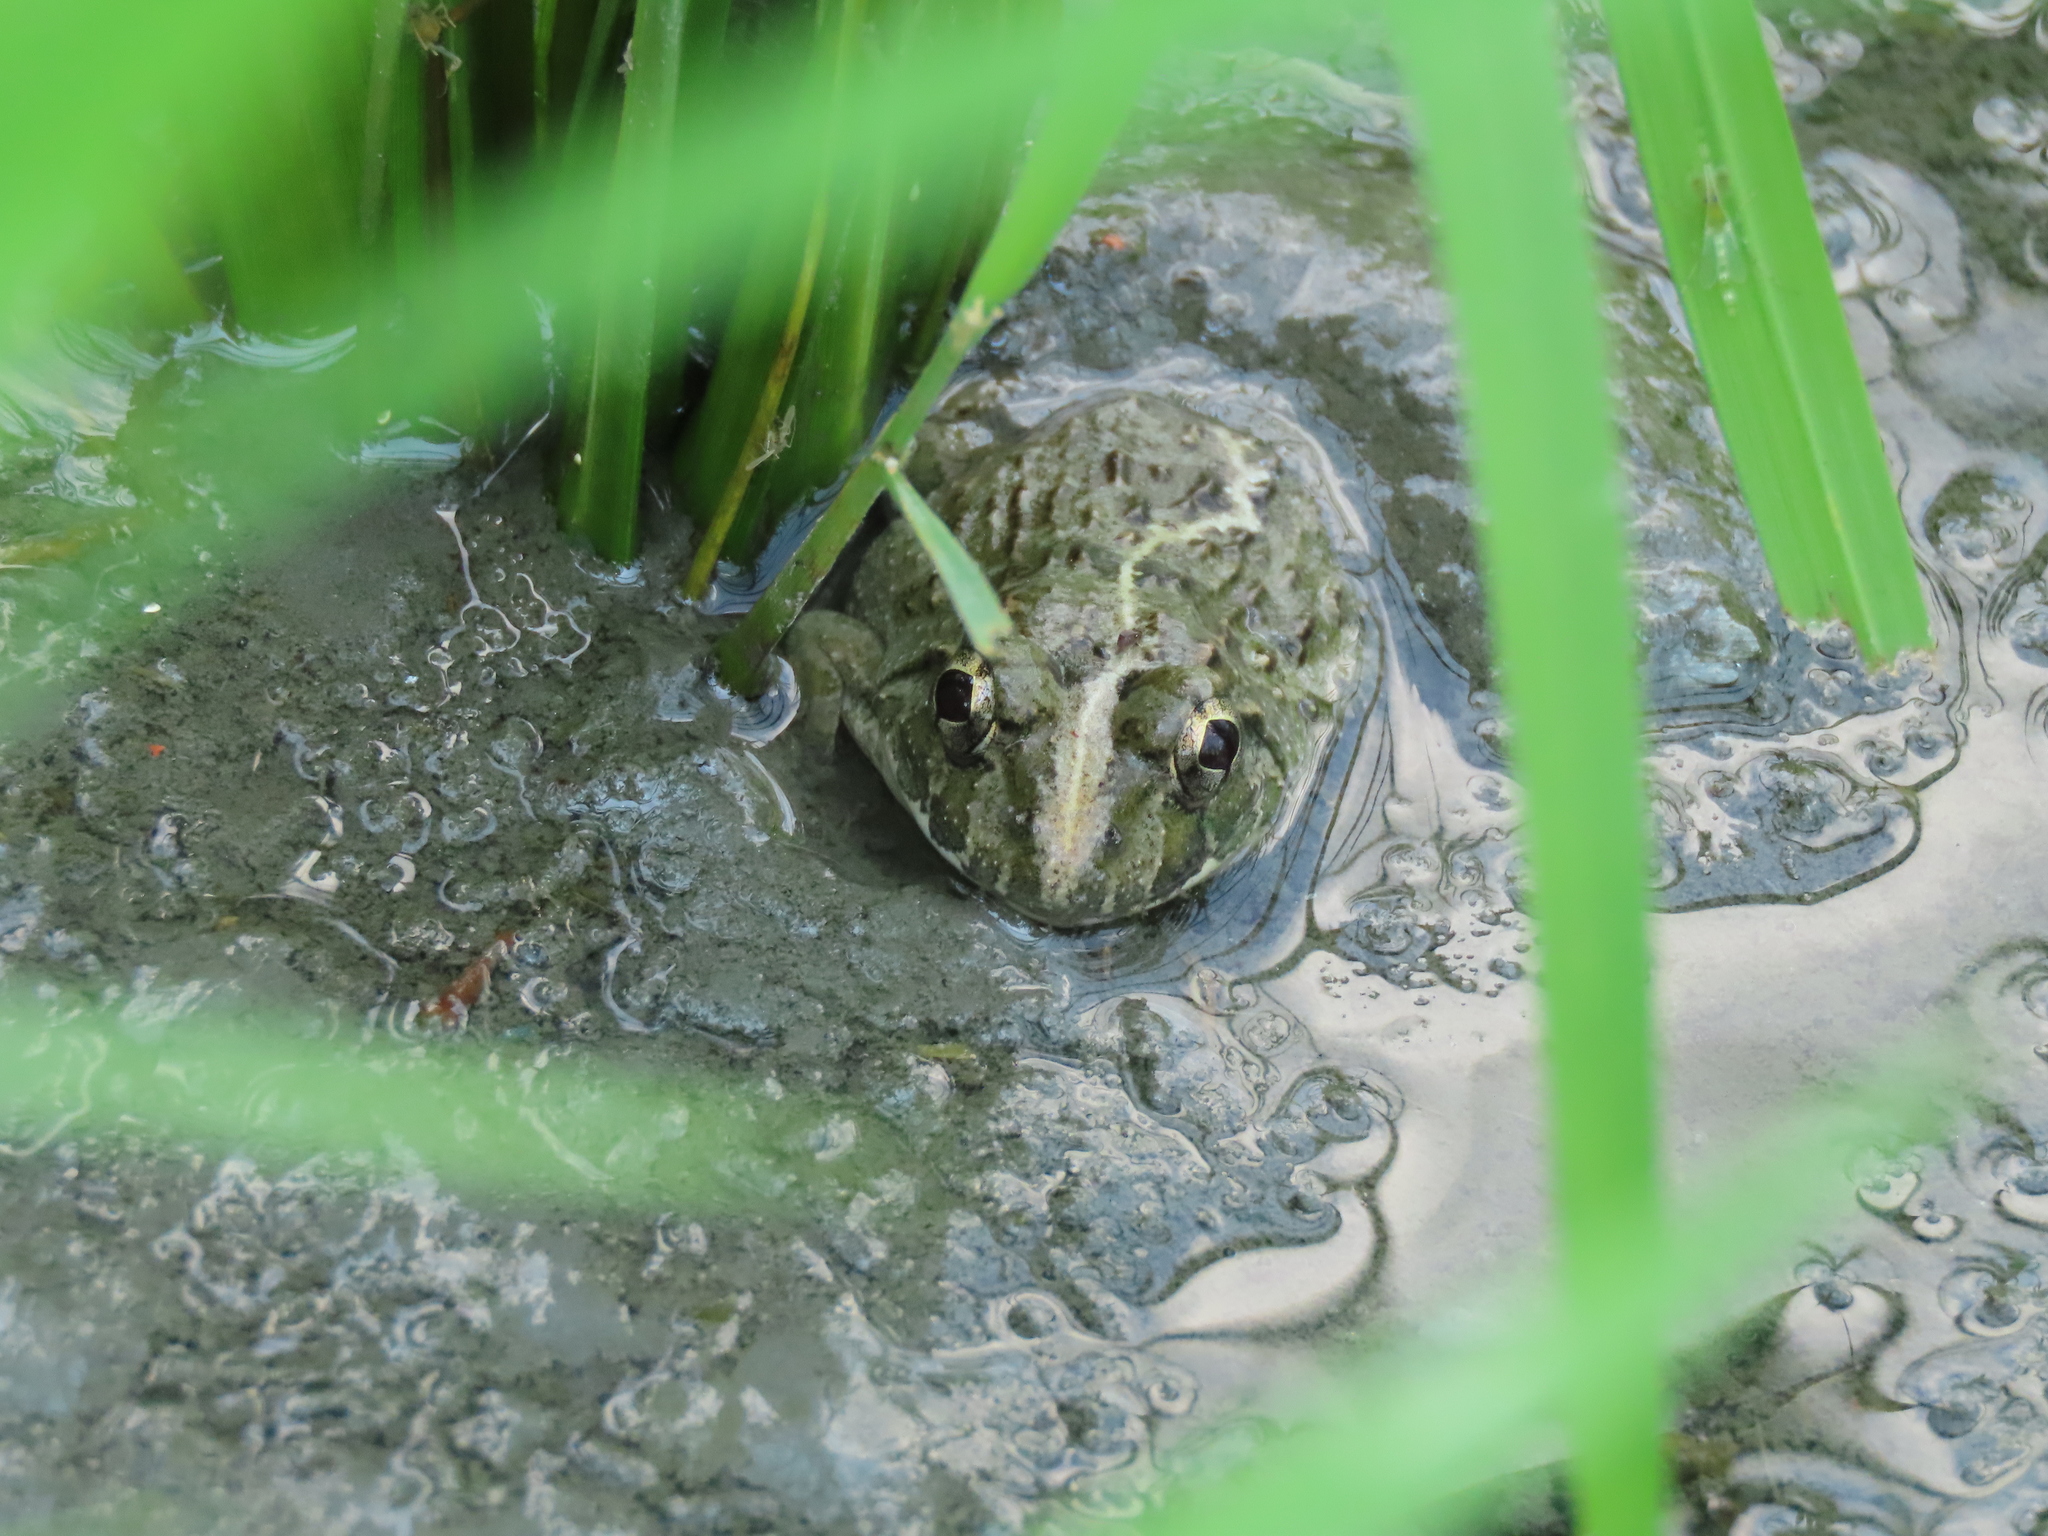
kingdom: Animalia
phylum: Chordata
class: Amphibia
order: Anura
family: Dicroglossidae
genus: Fejervarya
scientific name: Fejervarya limnocharis
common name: Asian grass frog/common pond frog/field frog/grass frog/indian rice frog
